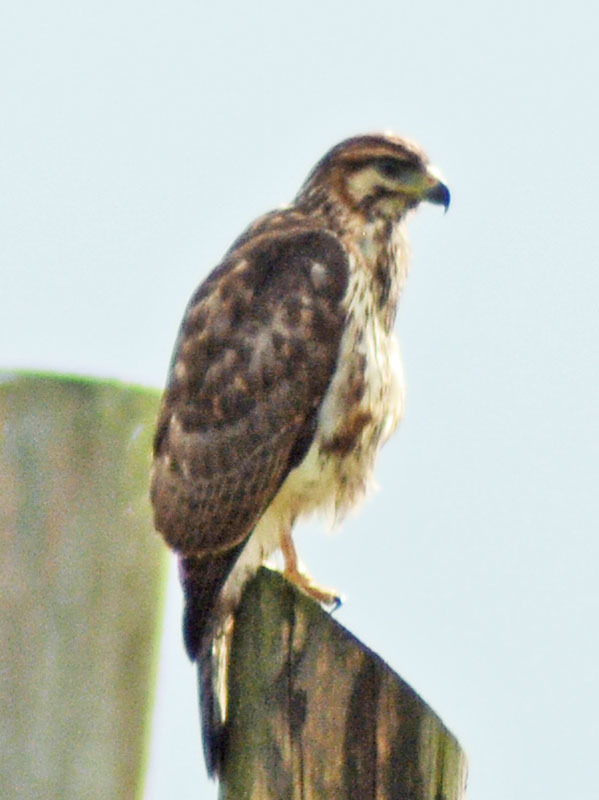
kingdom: Animalia
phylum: Chordata
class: Aves
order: Accipitriformes
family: Accipitridae
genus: Buteo
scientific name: Buteo nitidus
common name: Grey-lined hawk
